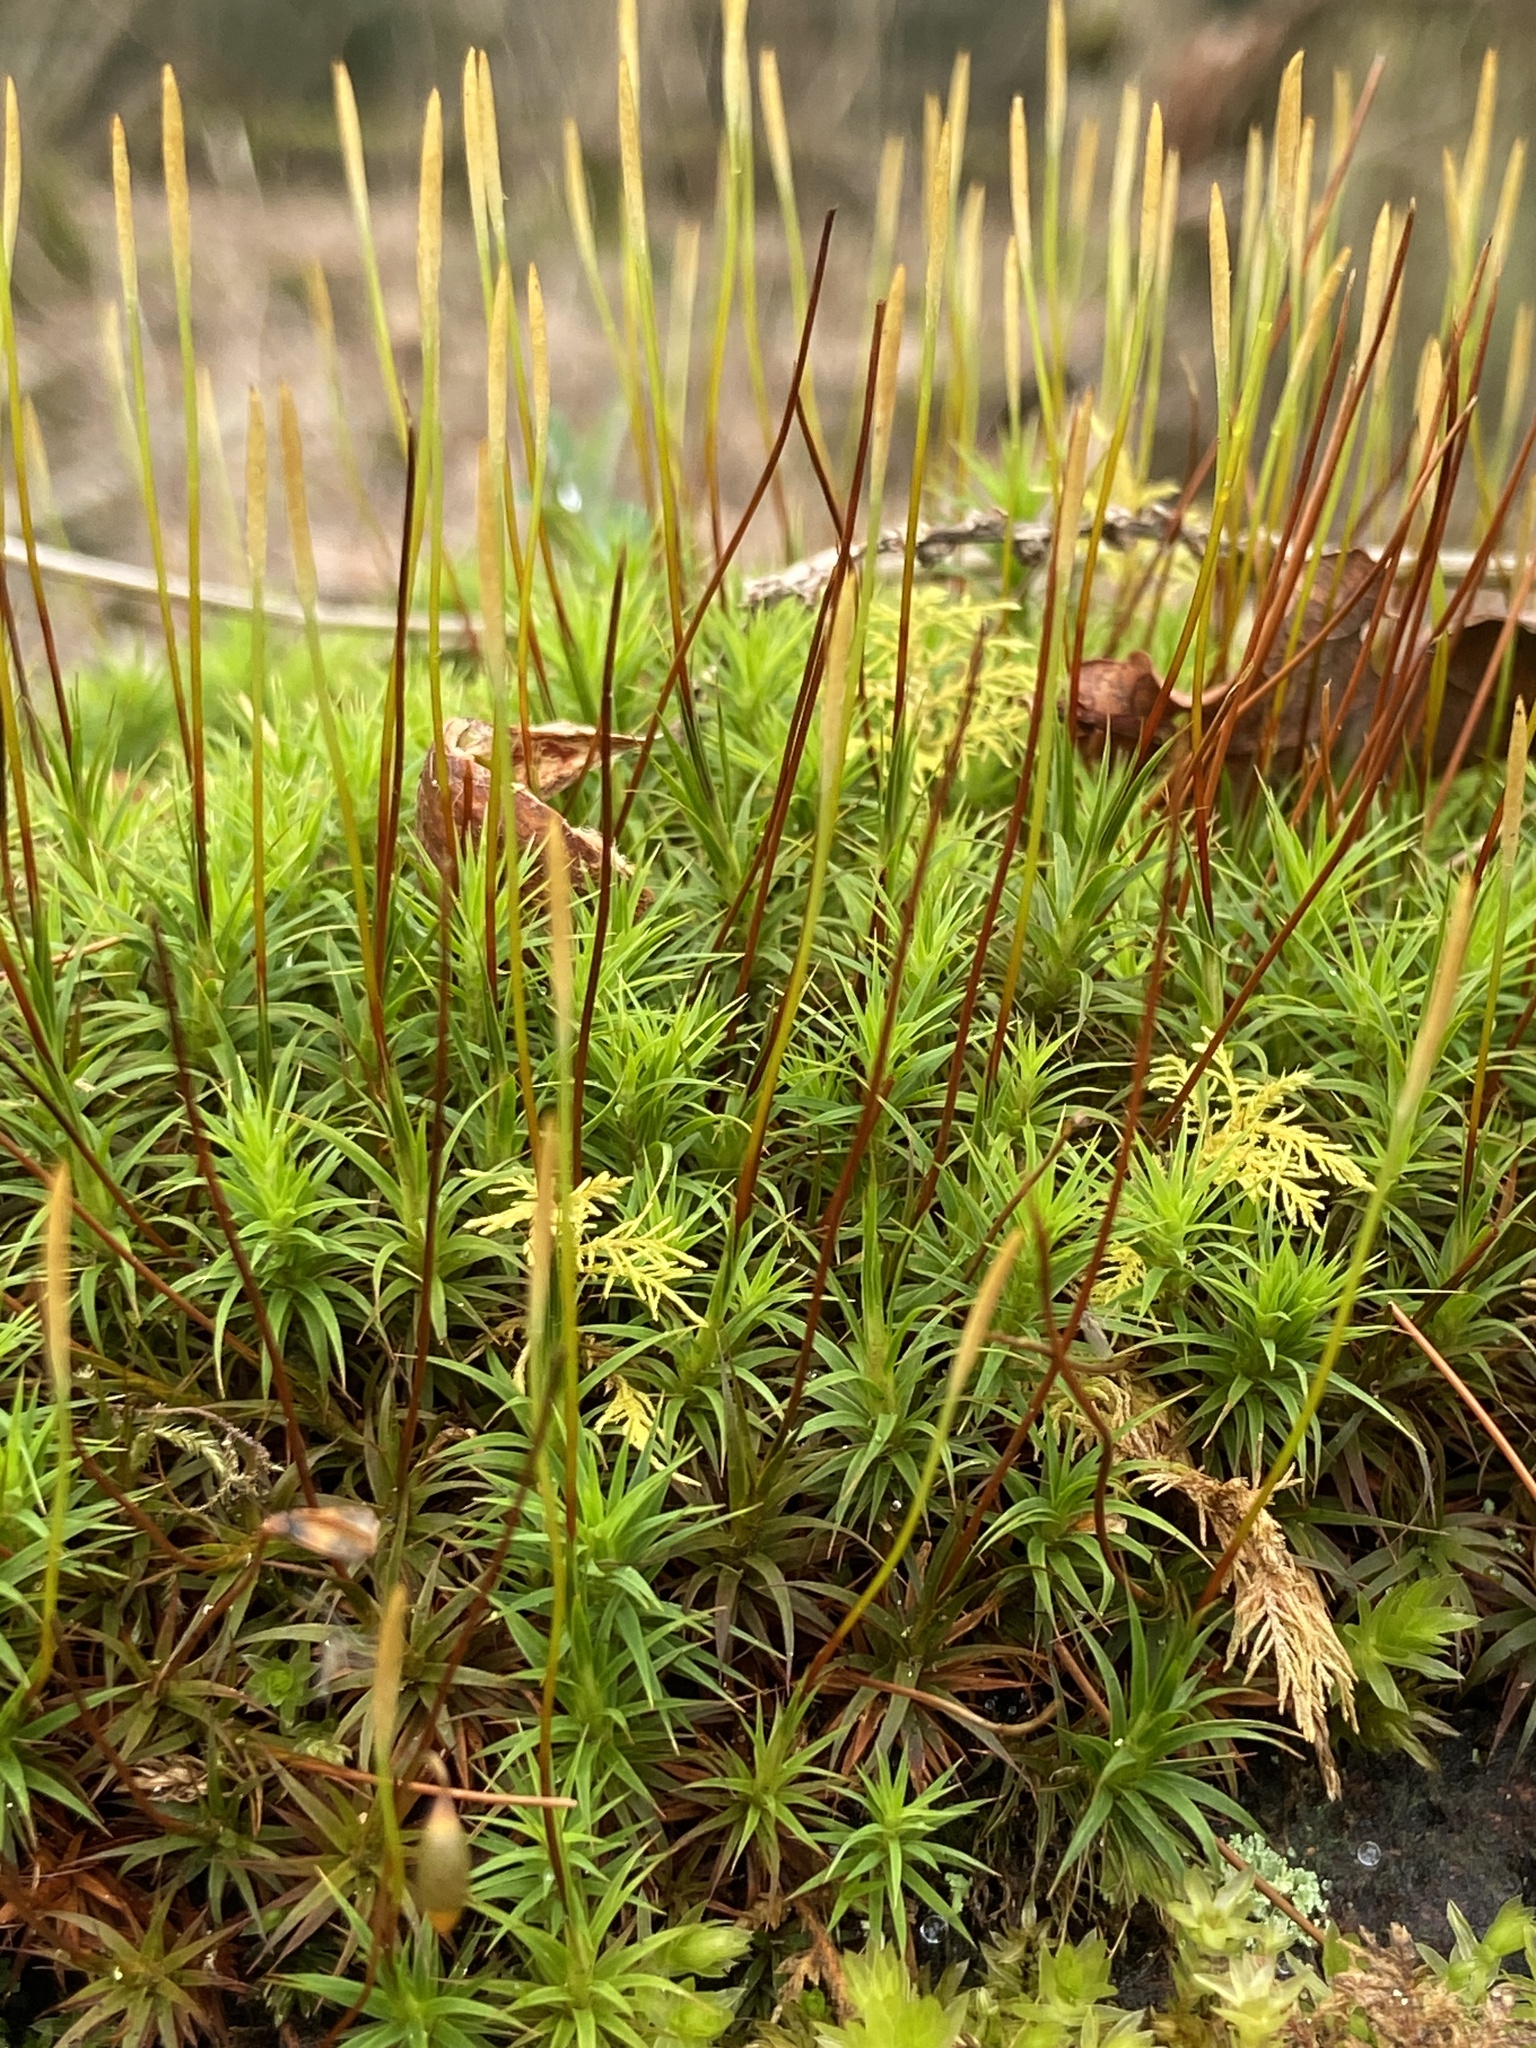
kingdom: Plantae
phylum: Bryophyta
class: Polytrichopsida
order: Polytrichales
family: Polytrichaceae
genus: Polytrichum
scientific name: Polytrichum formosum
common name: Bank haircap moss
